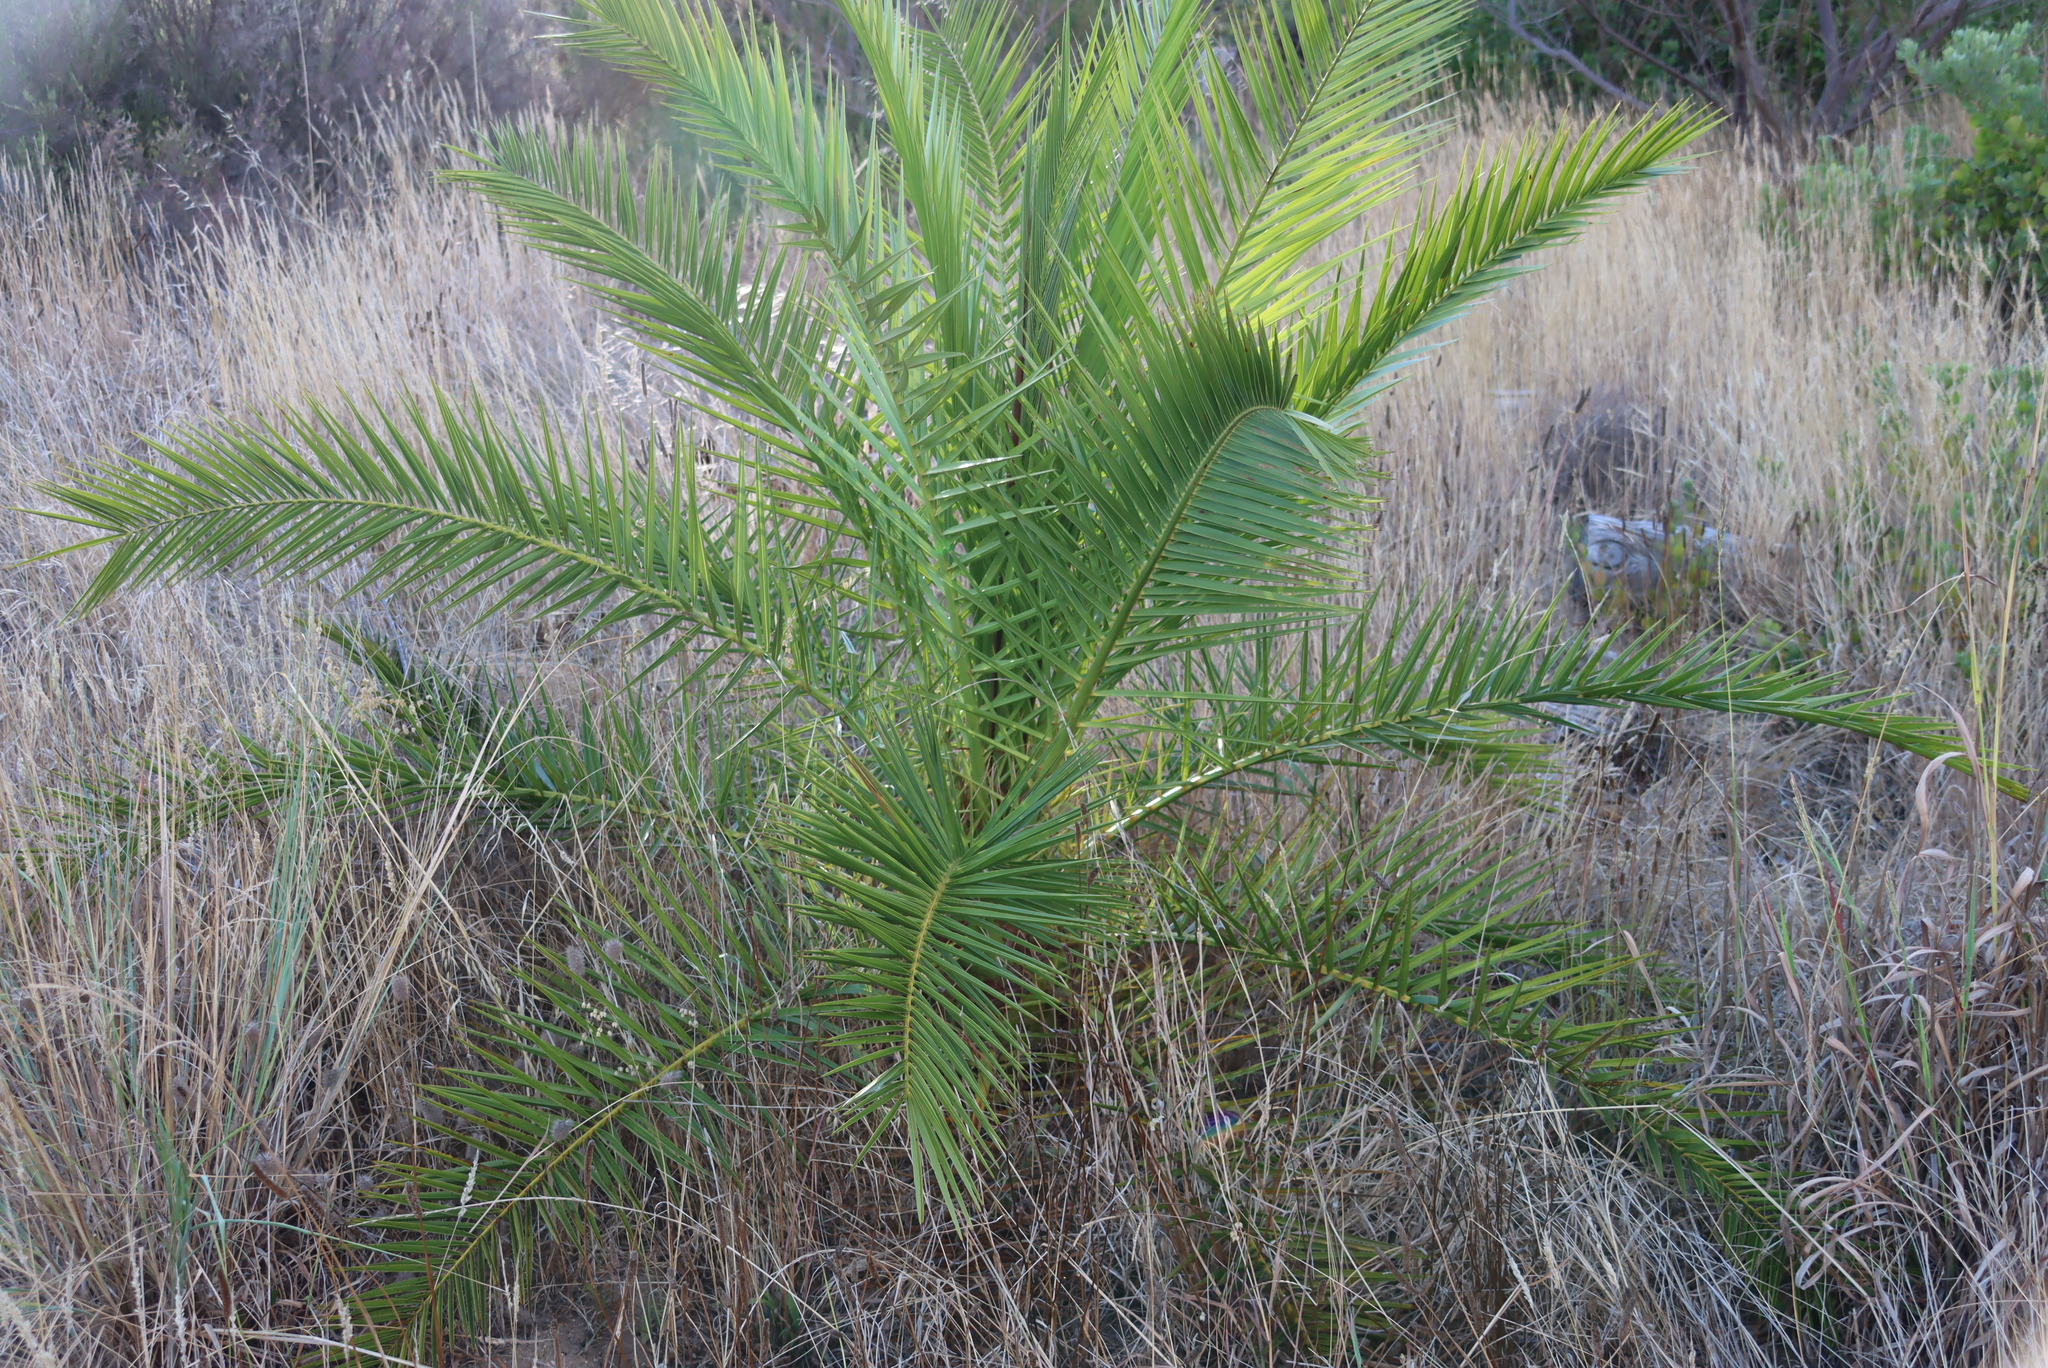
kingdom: Plantae
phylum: Tracheophyta
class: Liliopsida
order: Arecales
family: Arecaceae
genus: Phoenix
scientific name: Phoenix canariensis
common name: Canary island date palm
